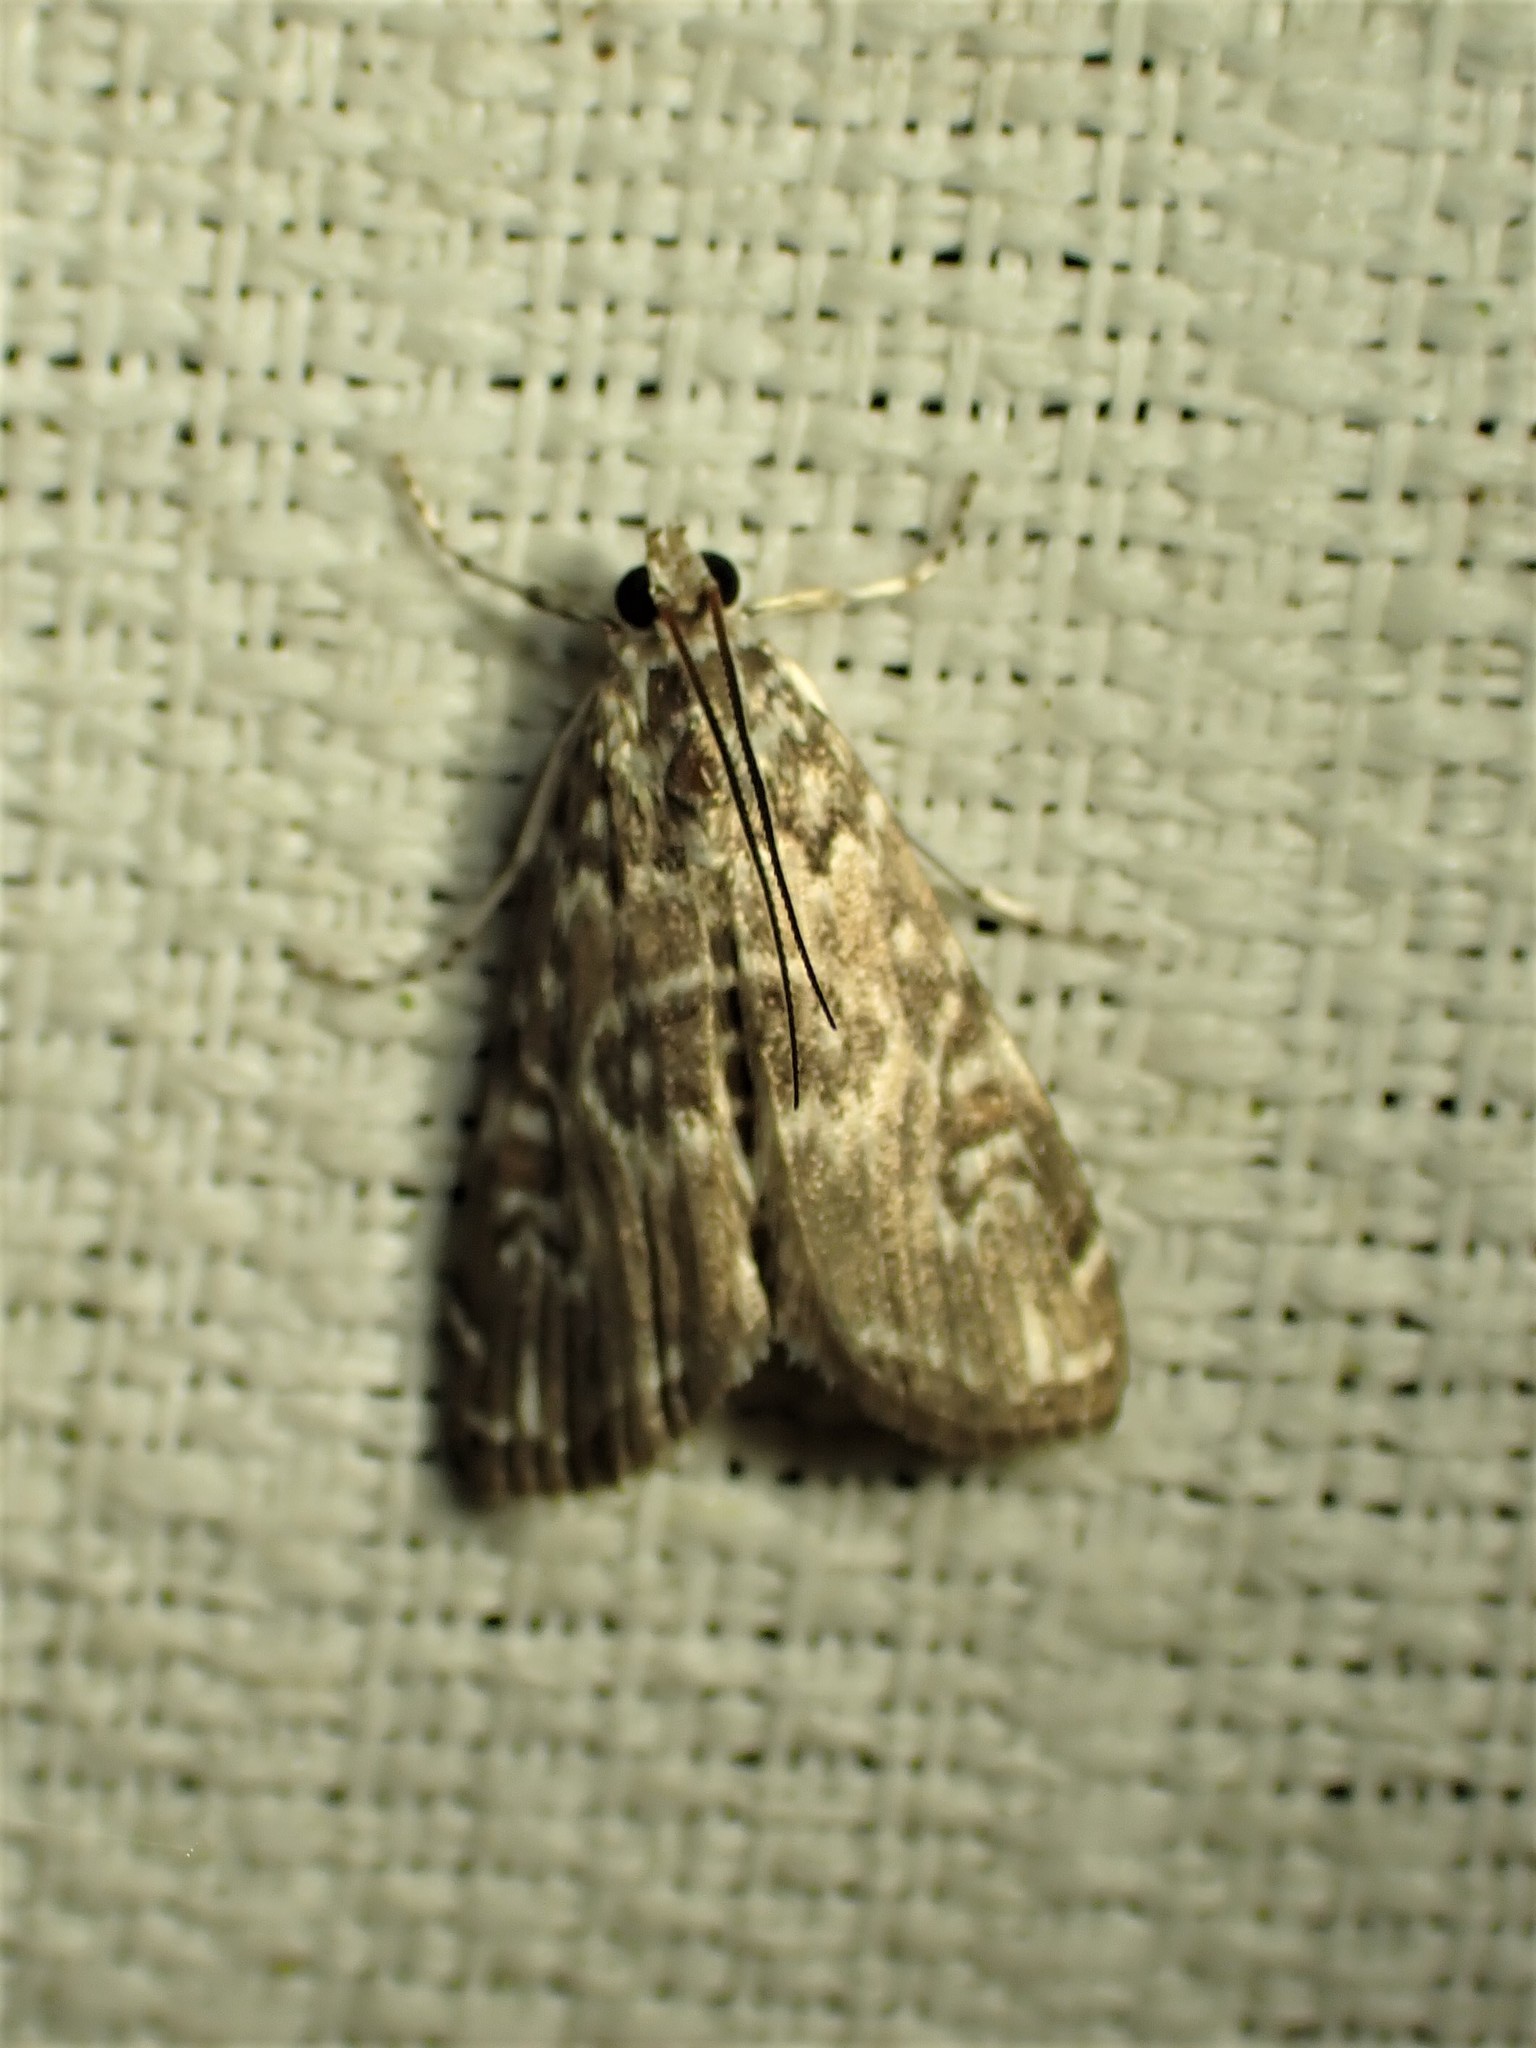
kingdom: Animalia
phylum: Arthropoda
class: Insecta
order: Lepidoptera
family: Crambidae
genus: Elophila
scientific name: Elophila gyralis
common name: Waterlily borer moth
